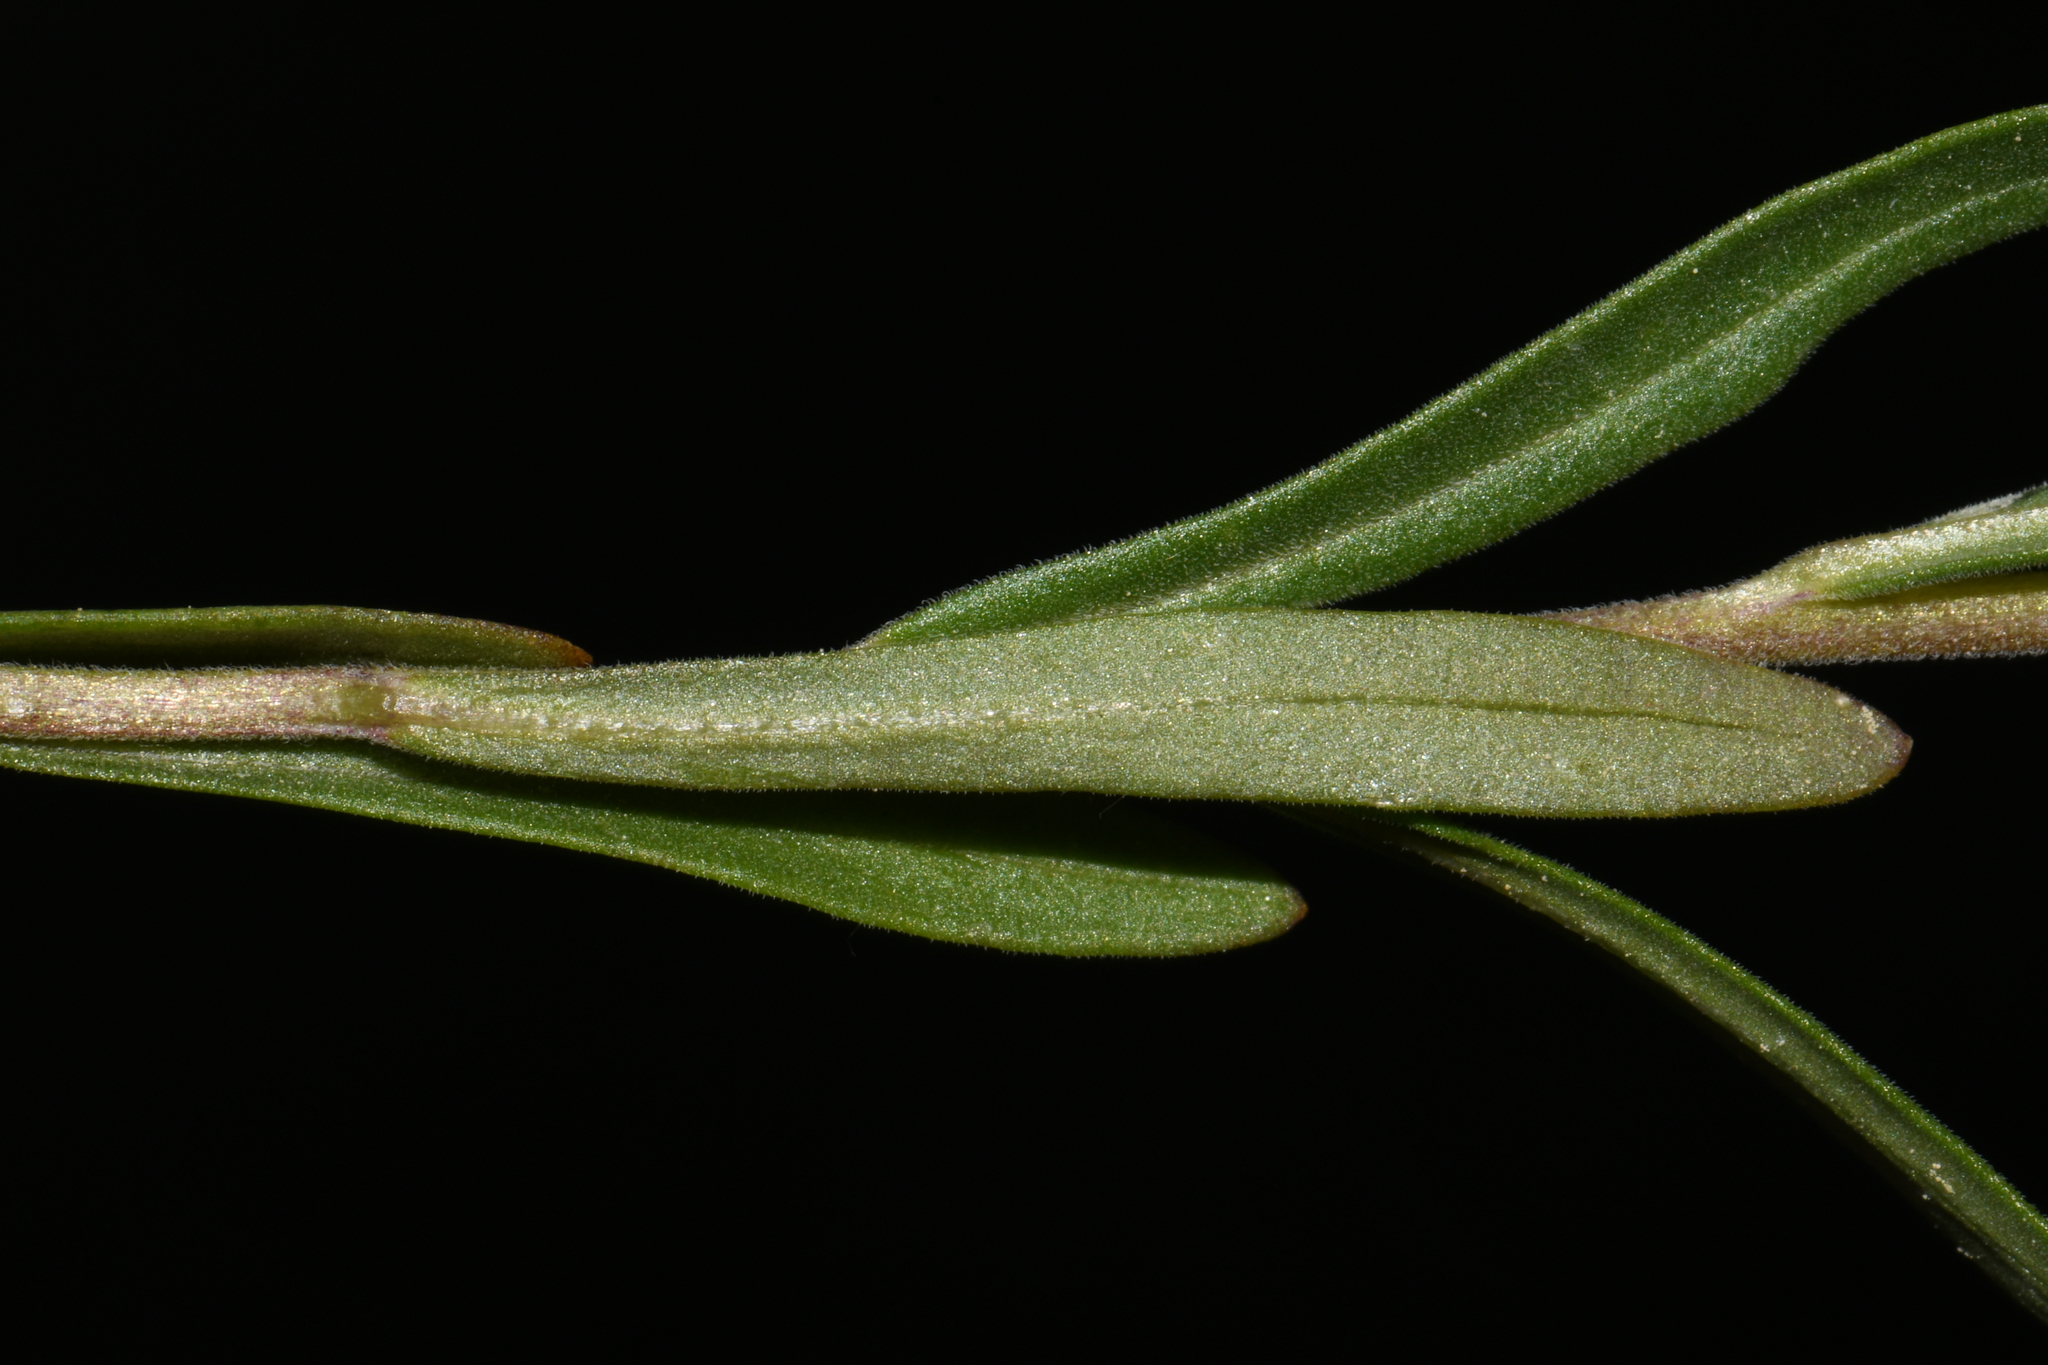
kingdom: Plantae
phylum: Tracheophyta
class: Magnoliopsida
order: Ericales
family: Polemoniaceae
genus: Collomia
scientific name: Collomia linearis
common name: Tiny trumpet
